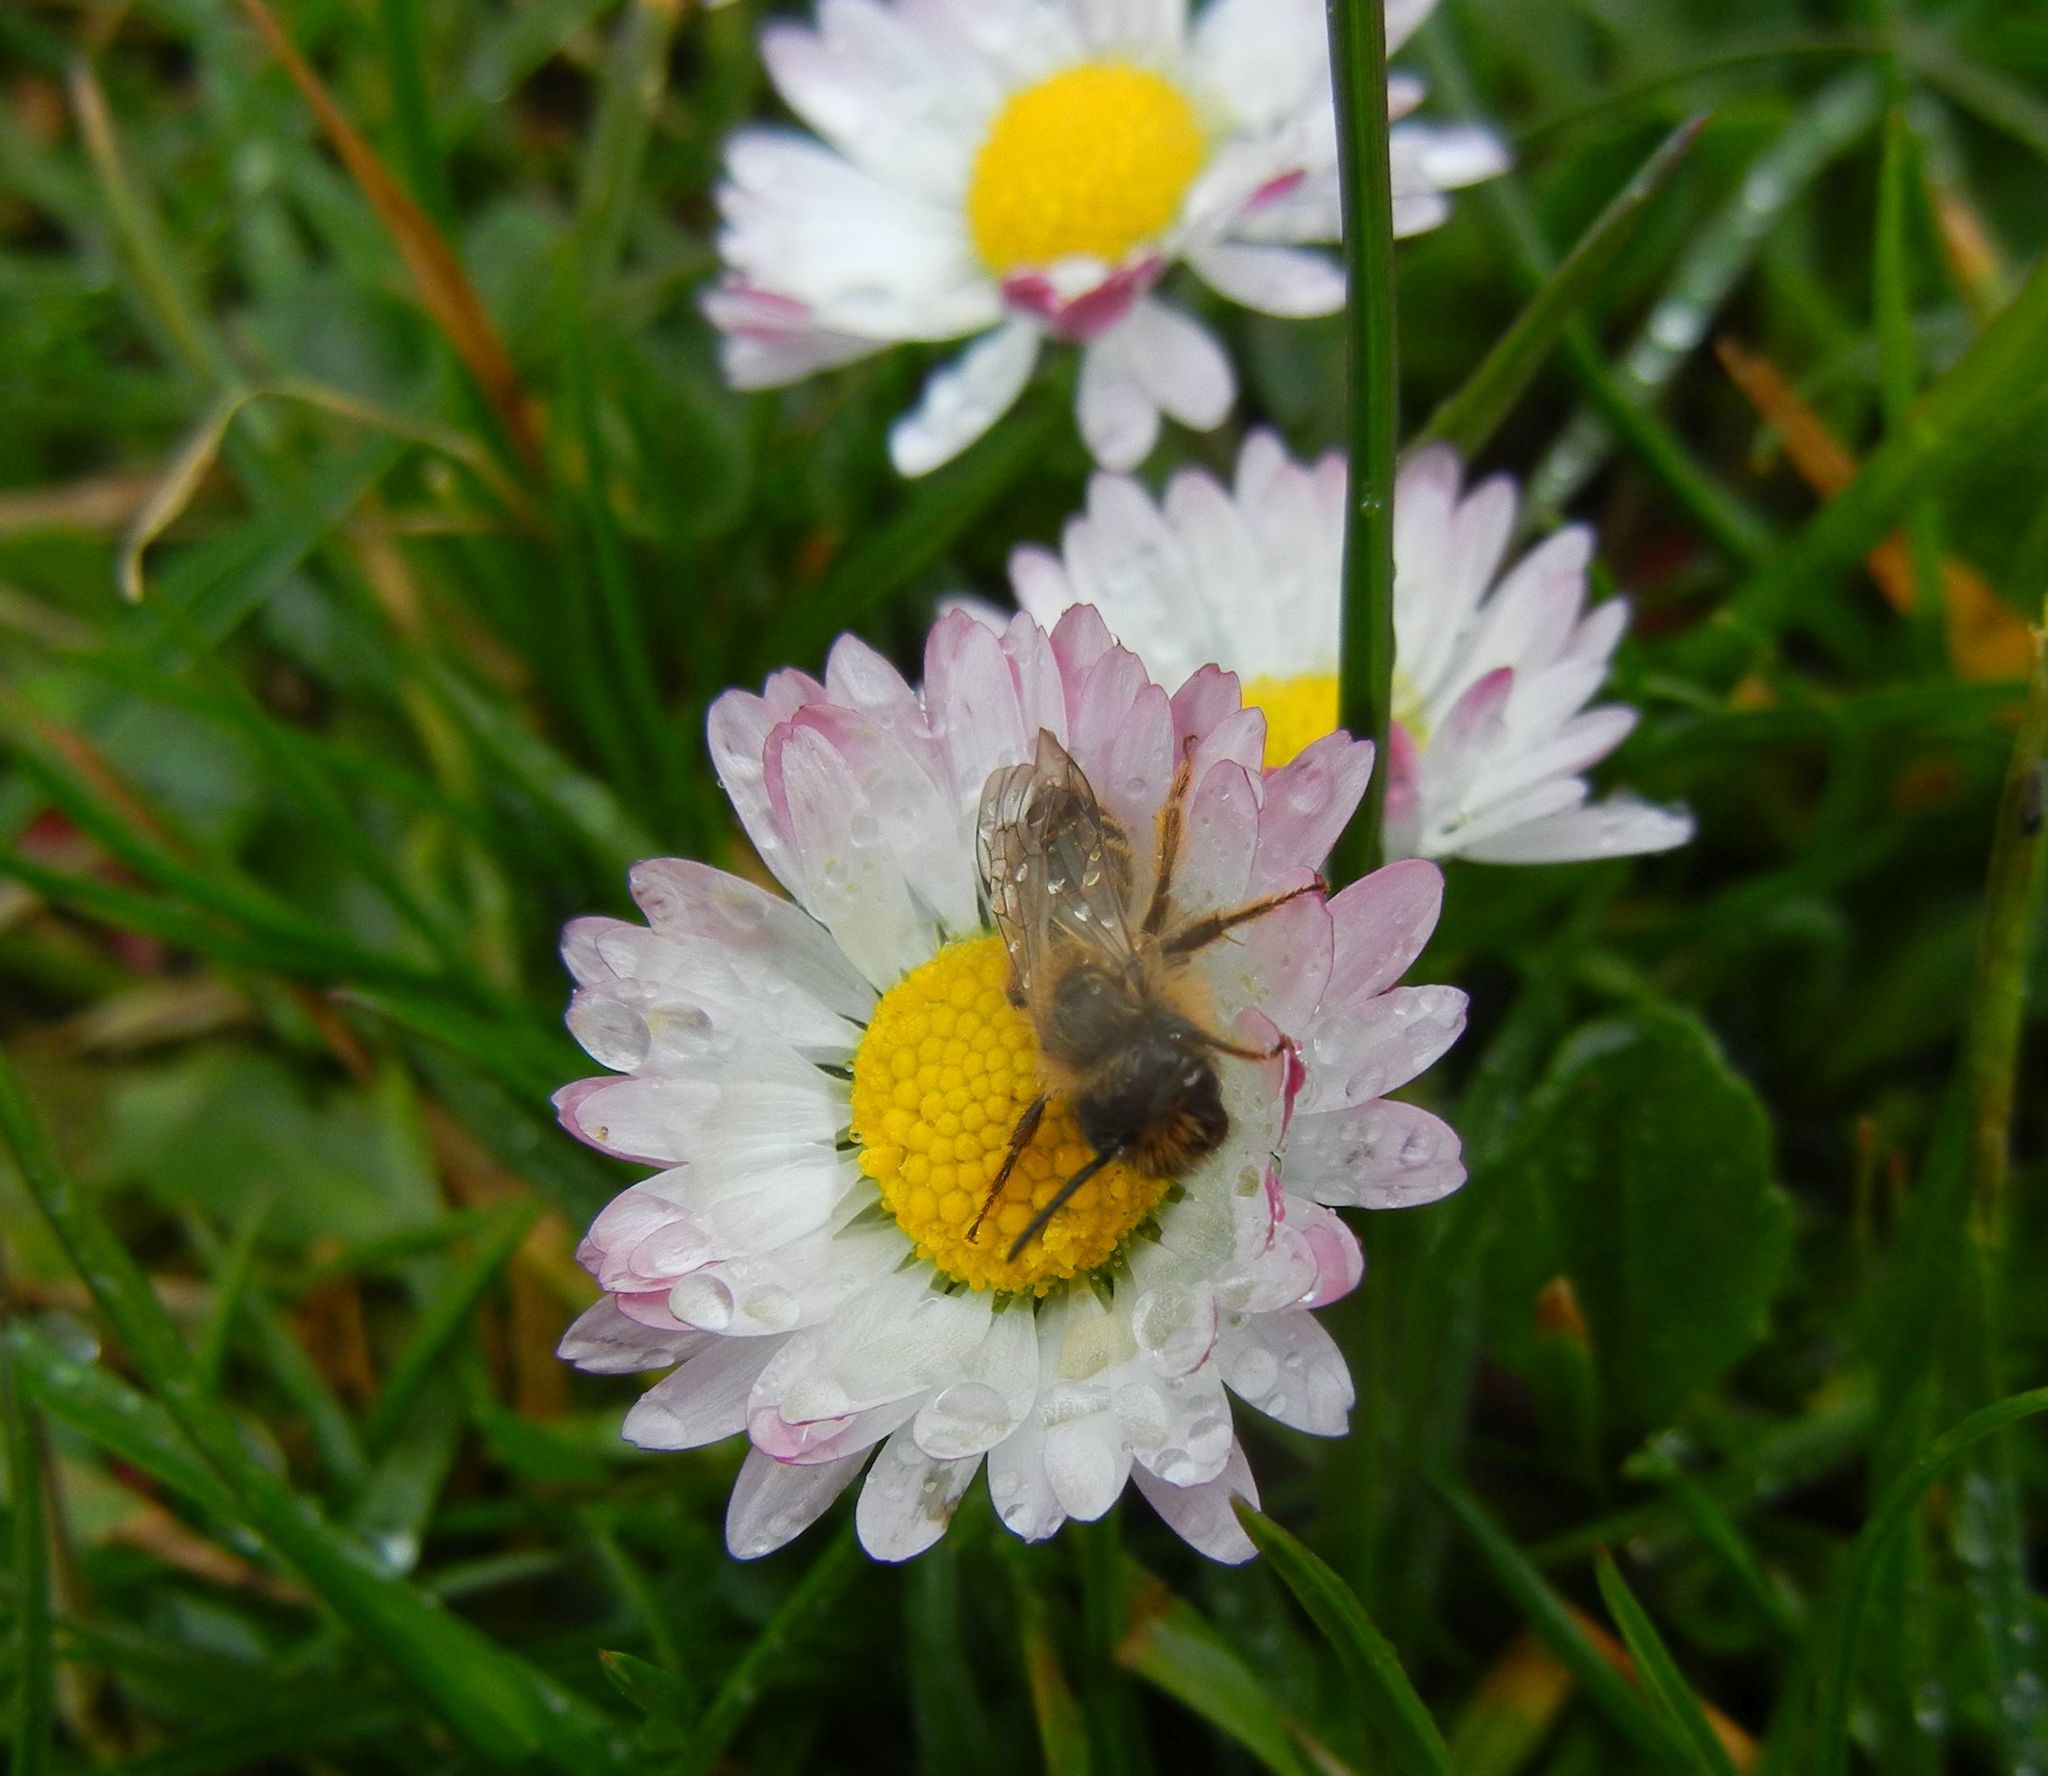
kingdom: Plantae
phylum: Tracheophyta
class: Magnoliopsida
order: Asterales
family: Asteraceae
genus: Bellis
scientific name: Bellis perennis
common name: Lawndaisy
